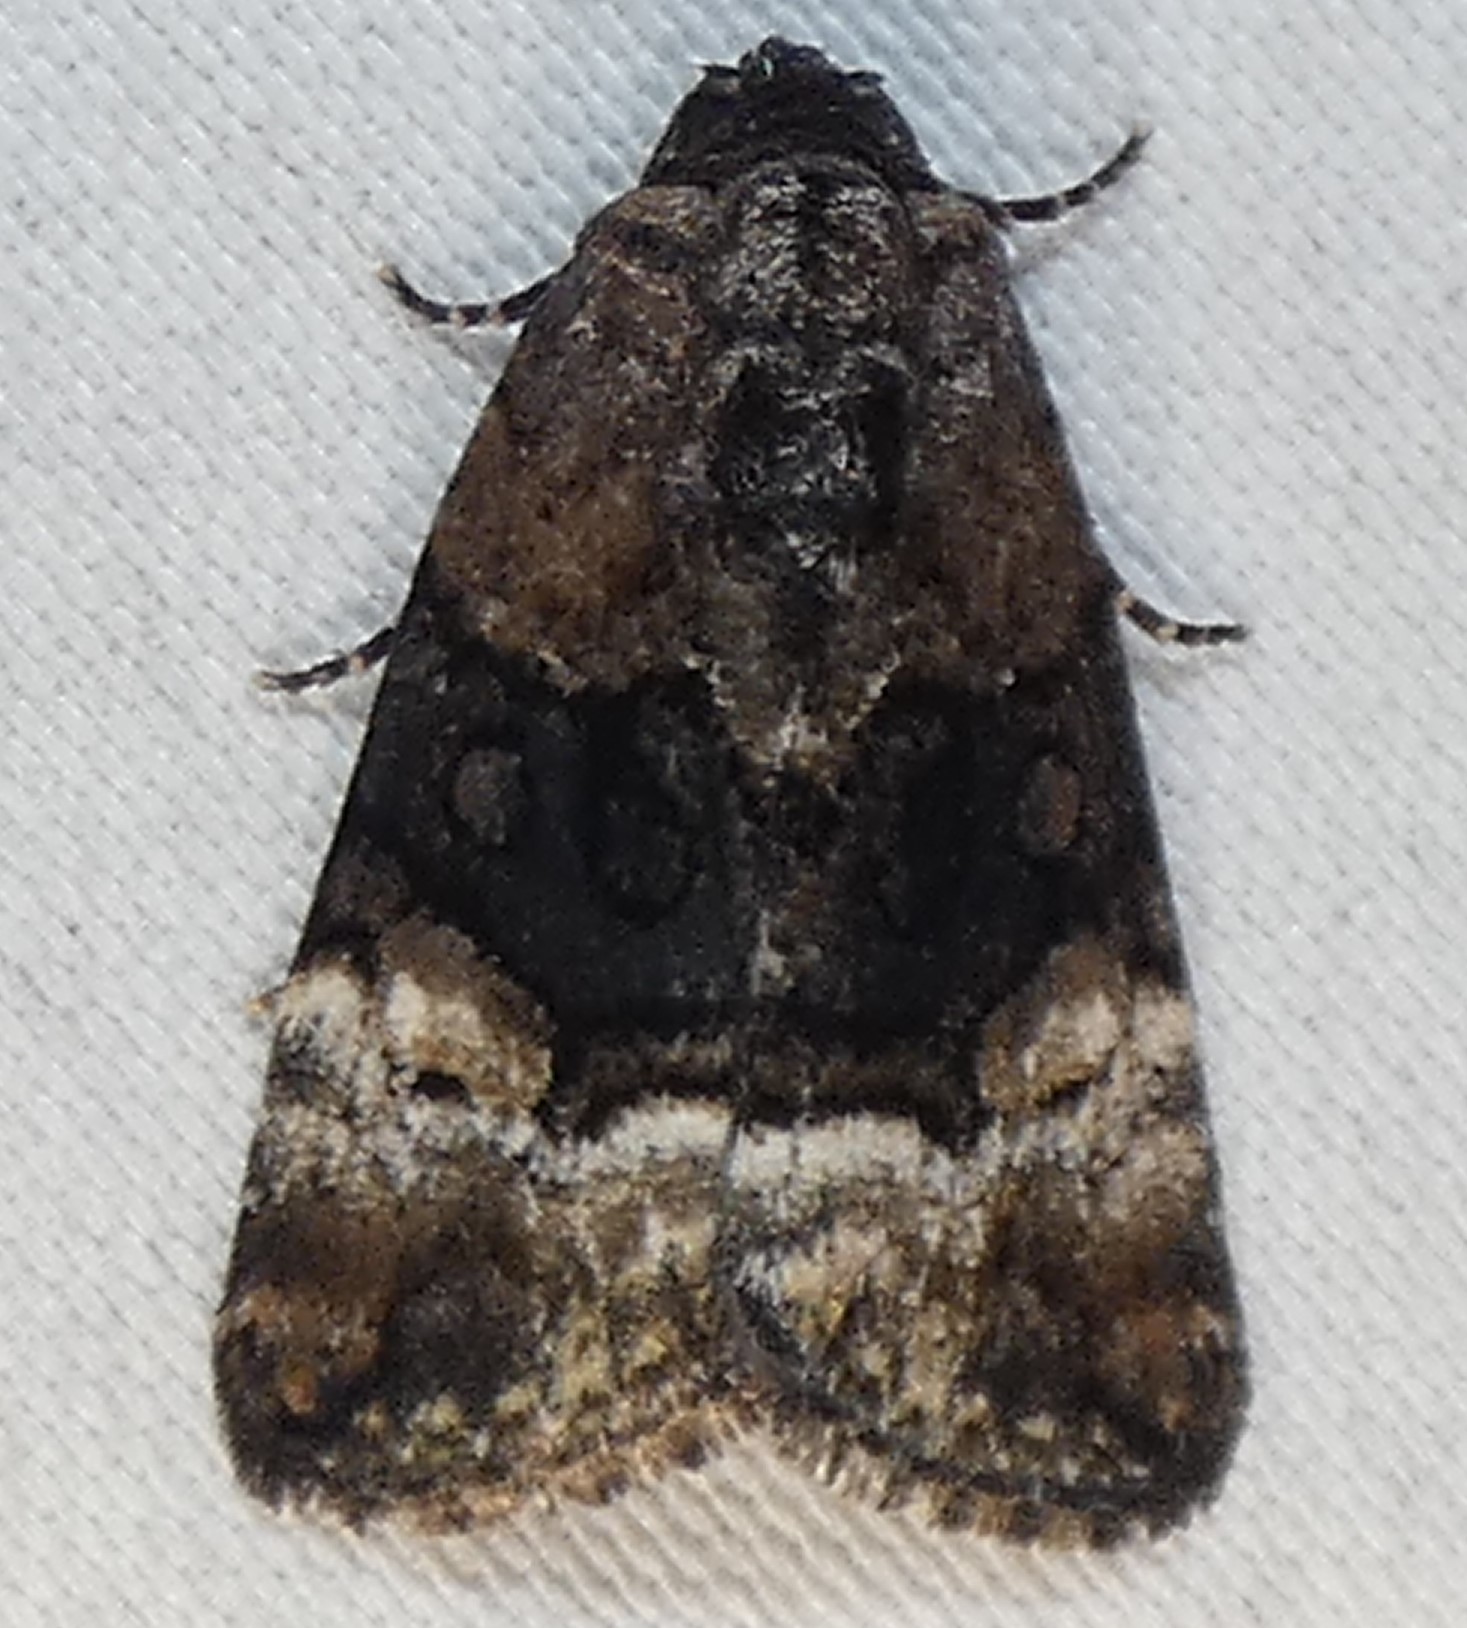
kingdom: Animalia
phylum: Arthropoda
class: Insecta
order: Lepidoptera
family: Noctuidae
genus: Elaphria
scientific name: Elaphria georgei
